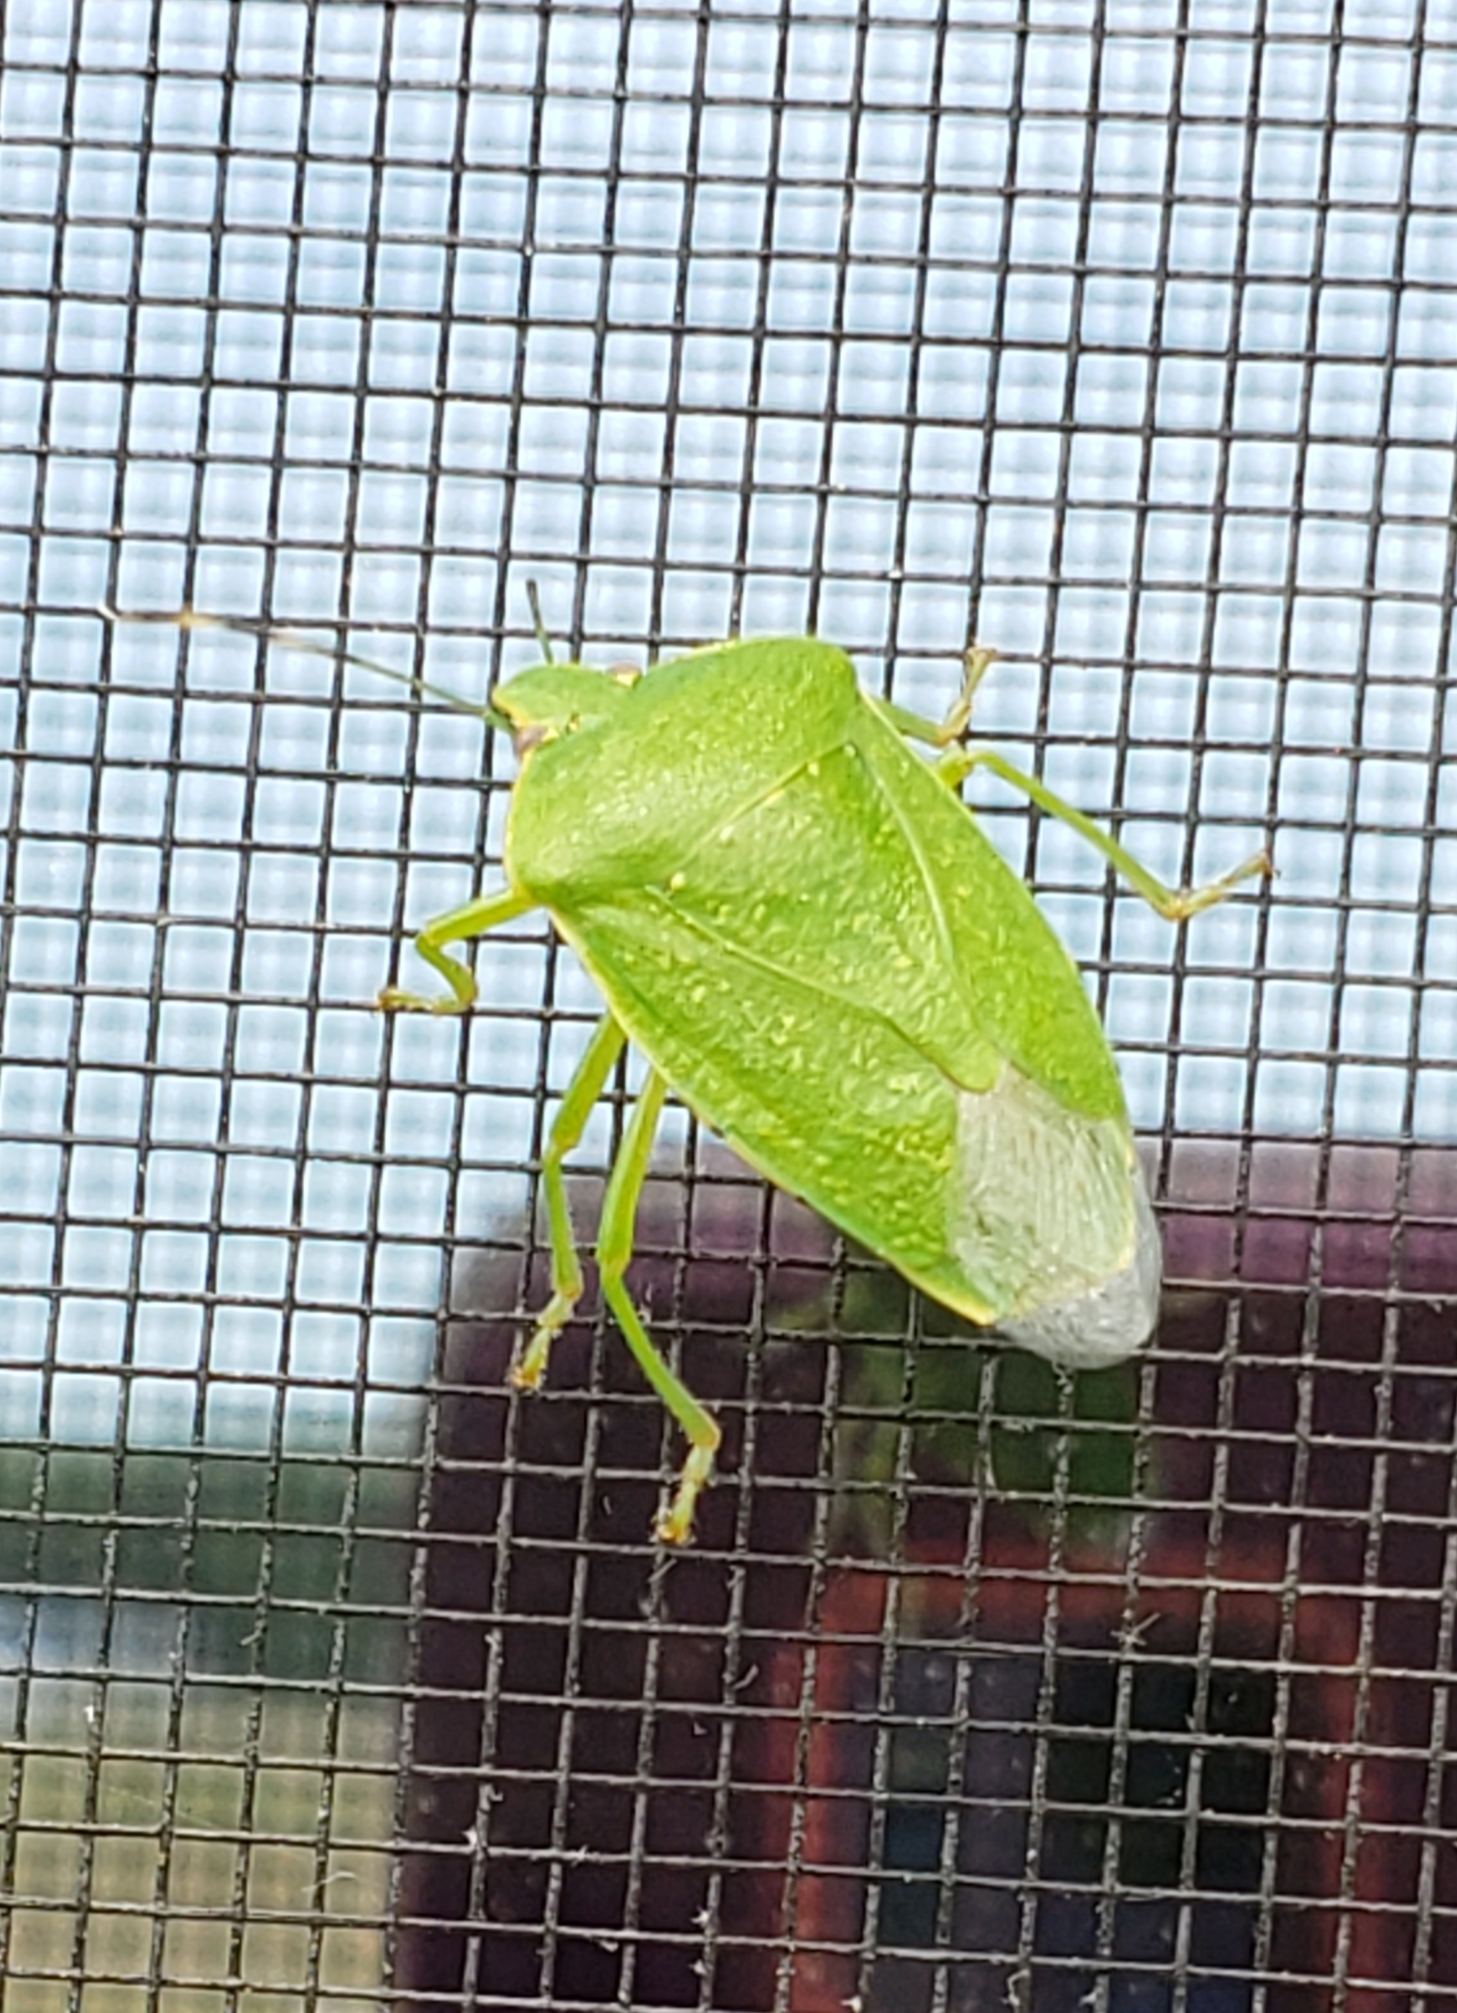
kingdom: Animalia
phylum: Arthropoda
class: Insecta
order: Hemiptera
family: Pentatomidae
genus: Chinavia
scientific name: Chinavia hilaris
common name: Green stink bug
